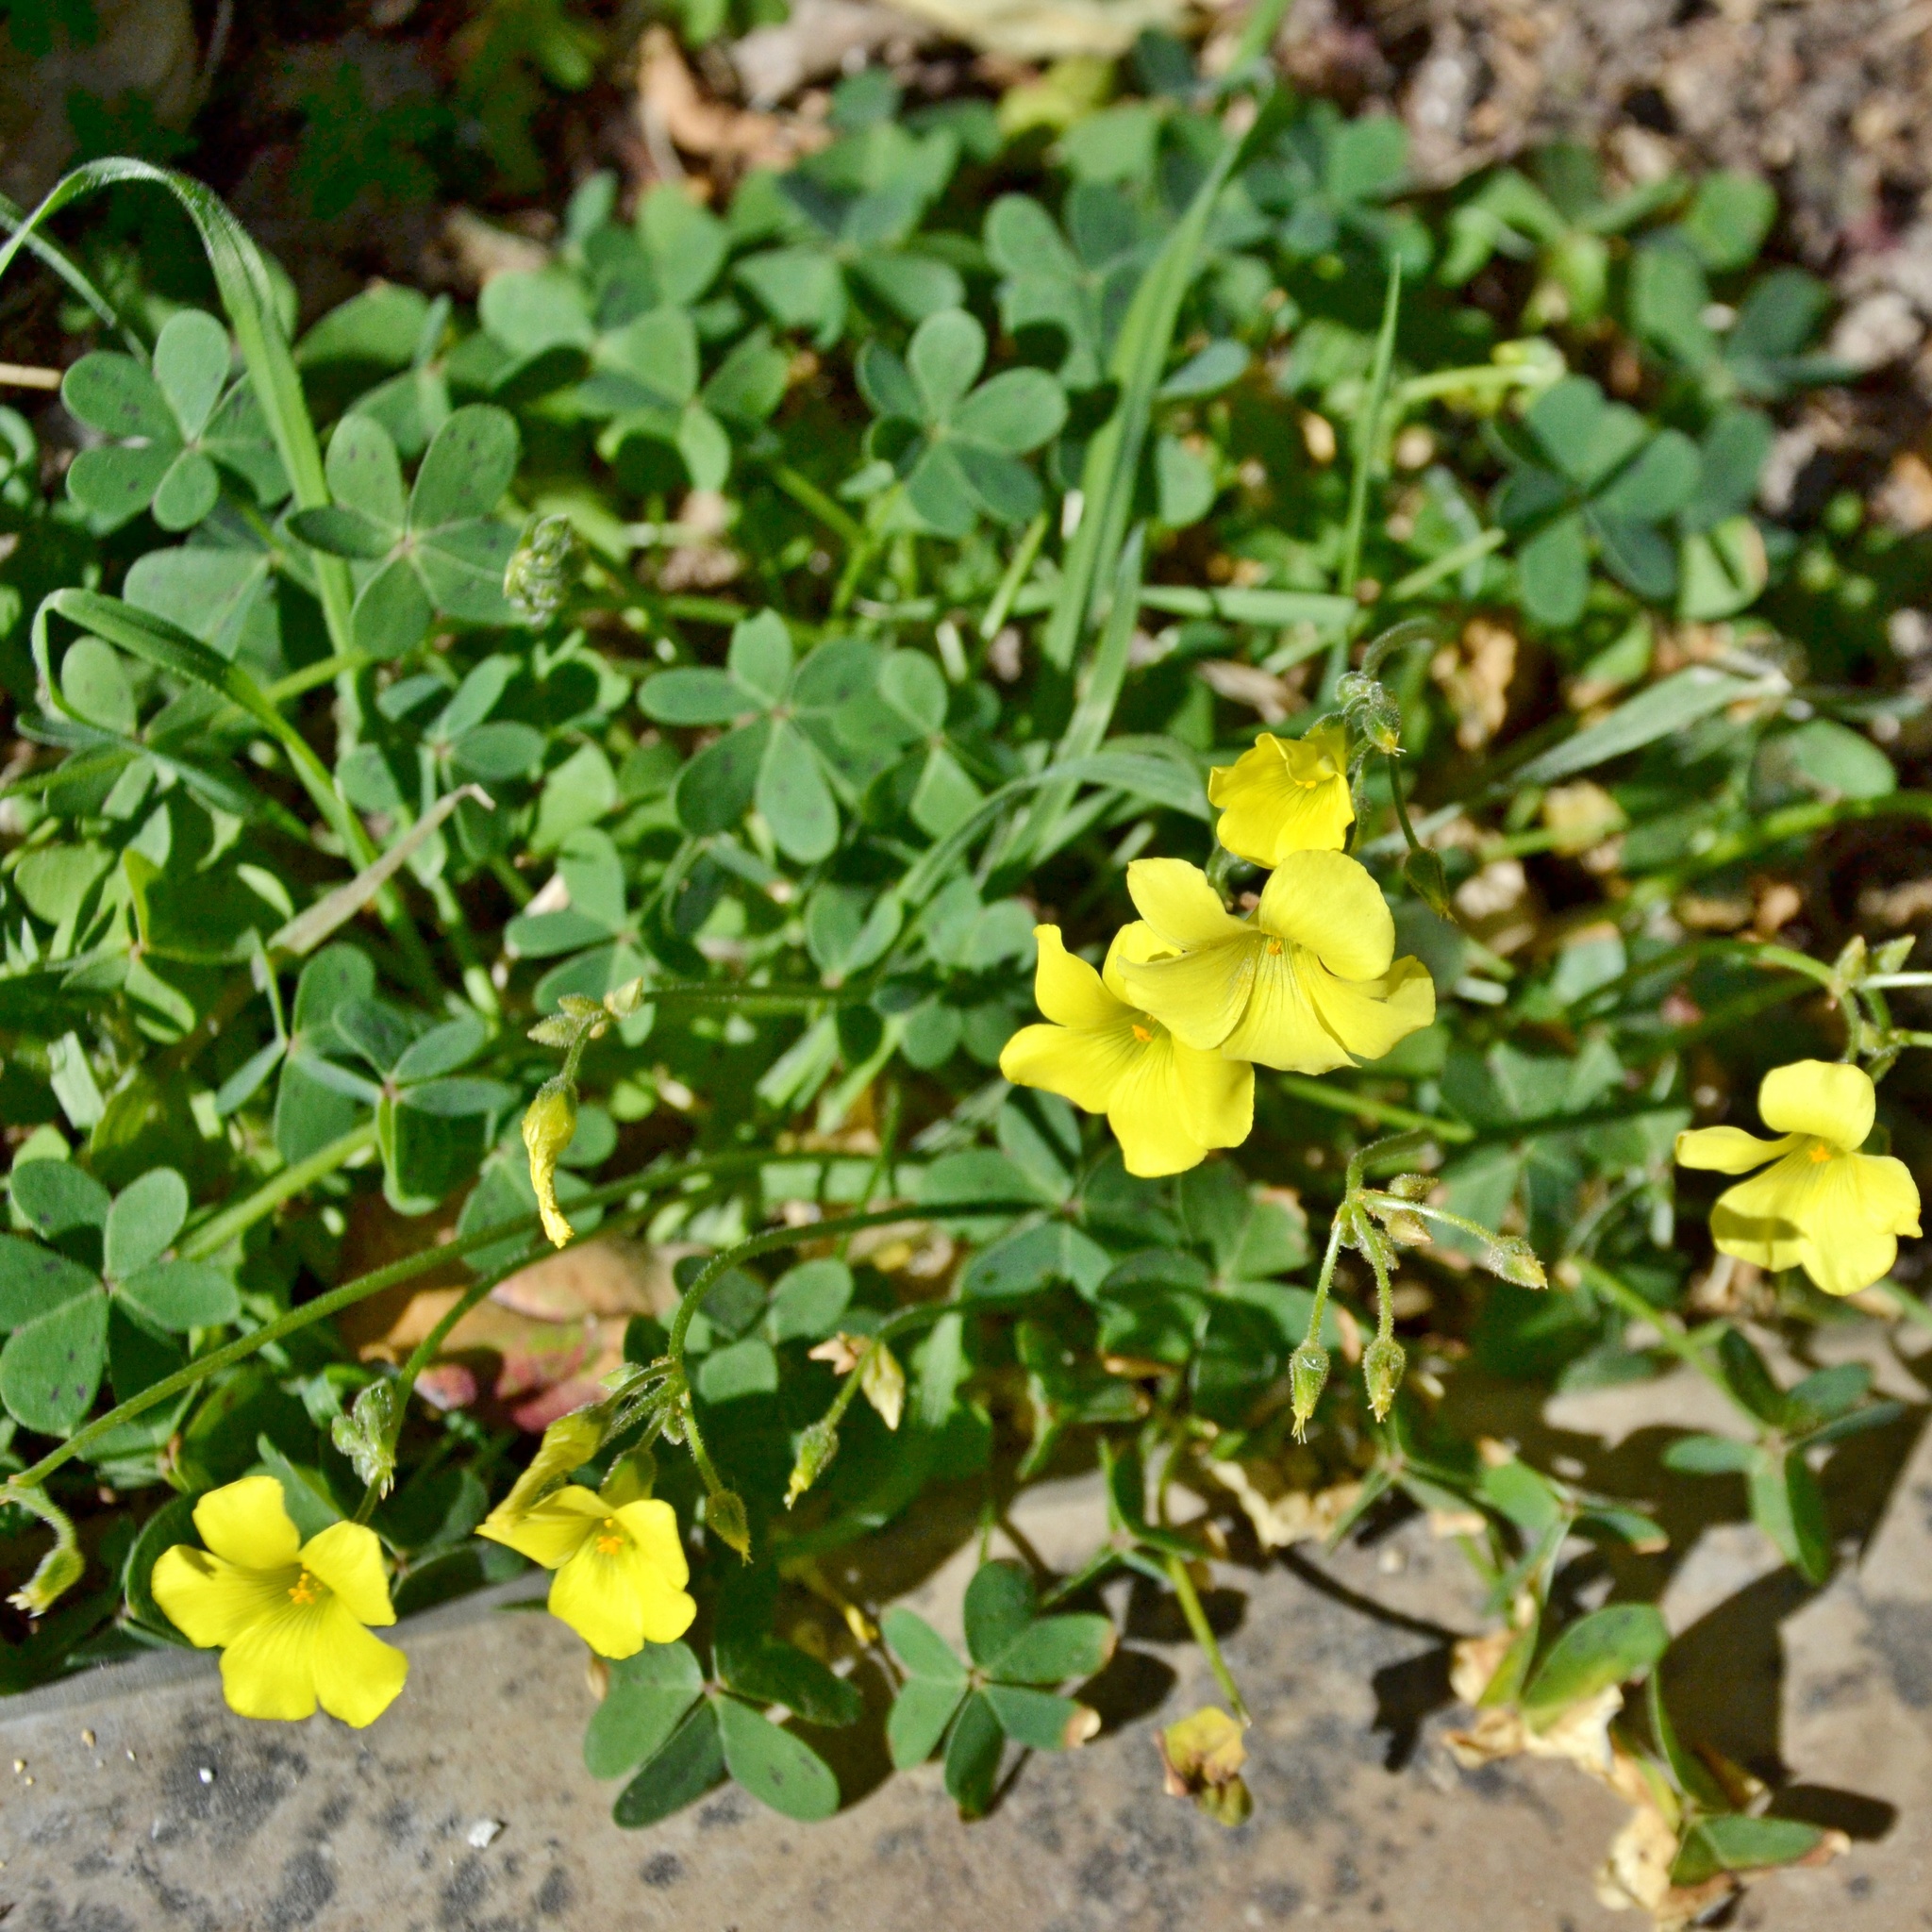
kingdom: Plantae
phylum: Tracheophyta
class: Magnoliopsida
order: Oxalidales
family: Oxalidaceae
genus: Oxalis
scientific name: Oxalis pes-caprae
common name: Bermuda-buttercup
